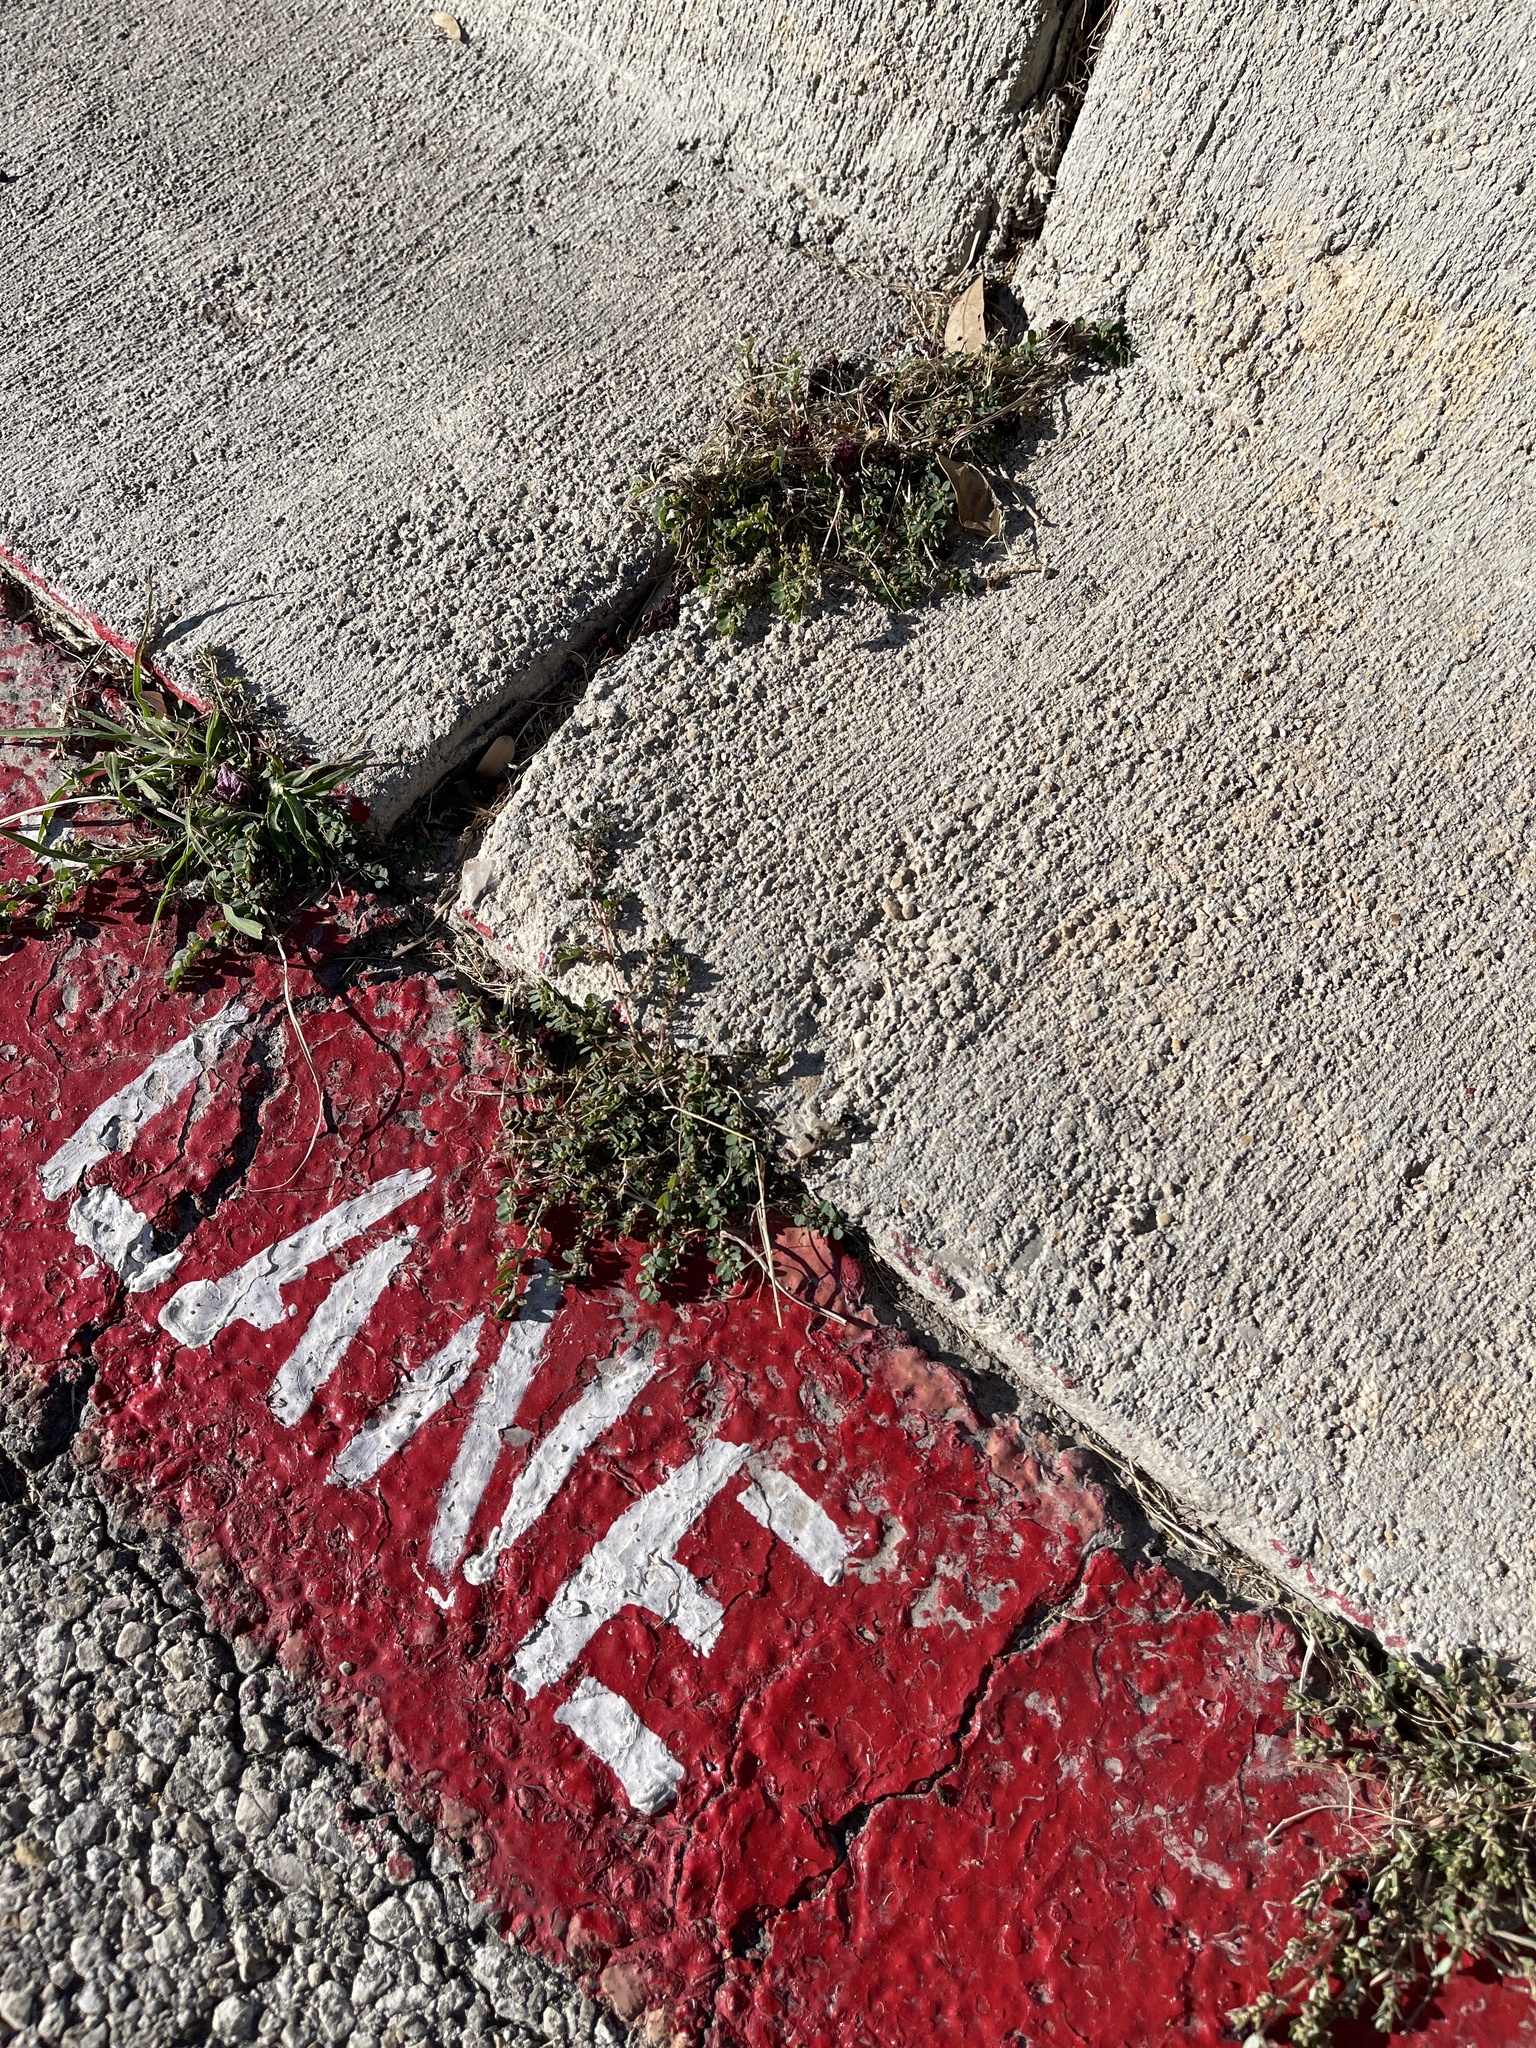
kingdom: Plantae
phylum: Tracheophyta
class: Magnoliopsida
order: Malpighiales
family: Euphorbiaceae
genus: Euphorbia
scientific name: Euphorbia prostrata
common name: Prostrate sandmat
